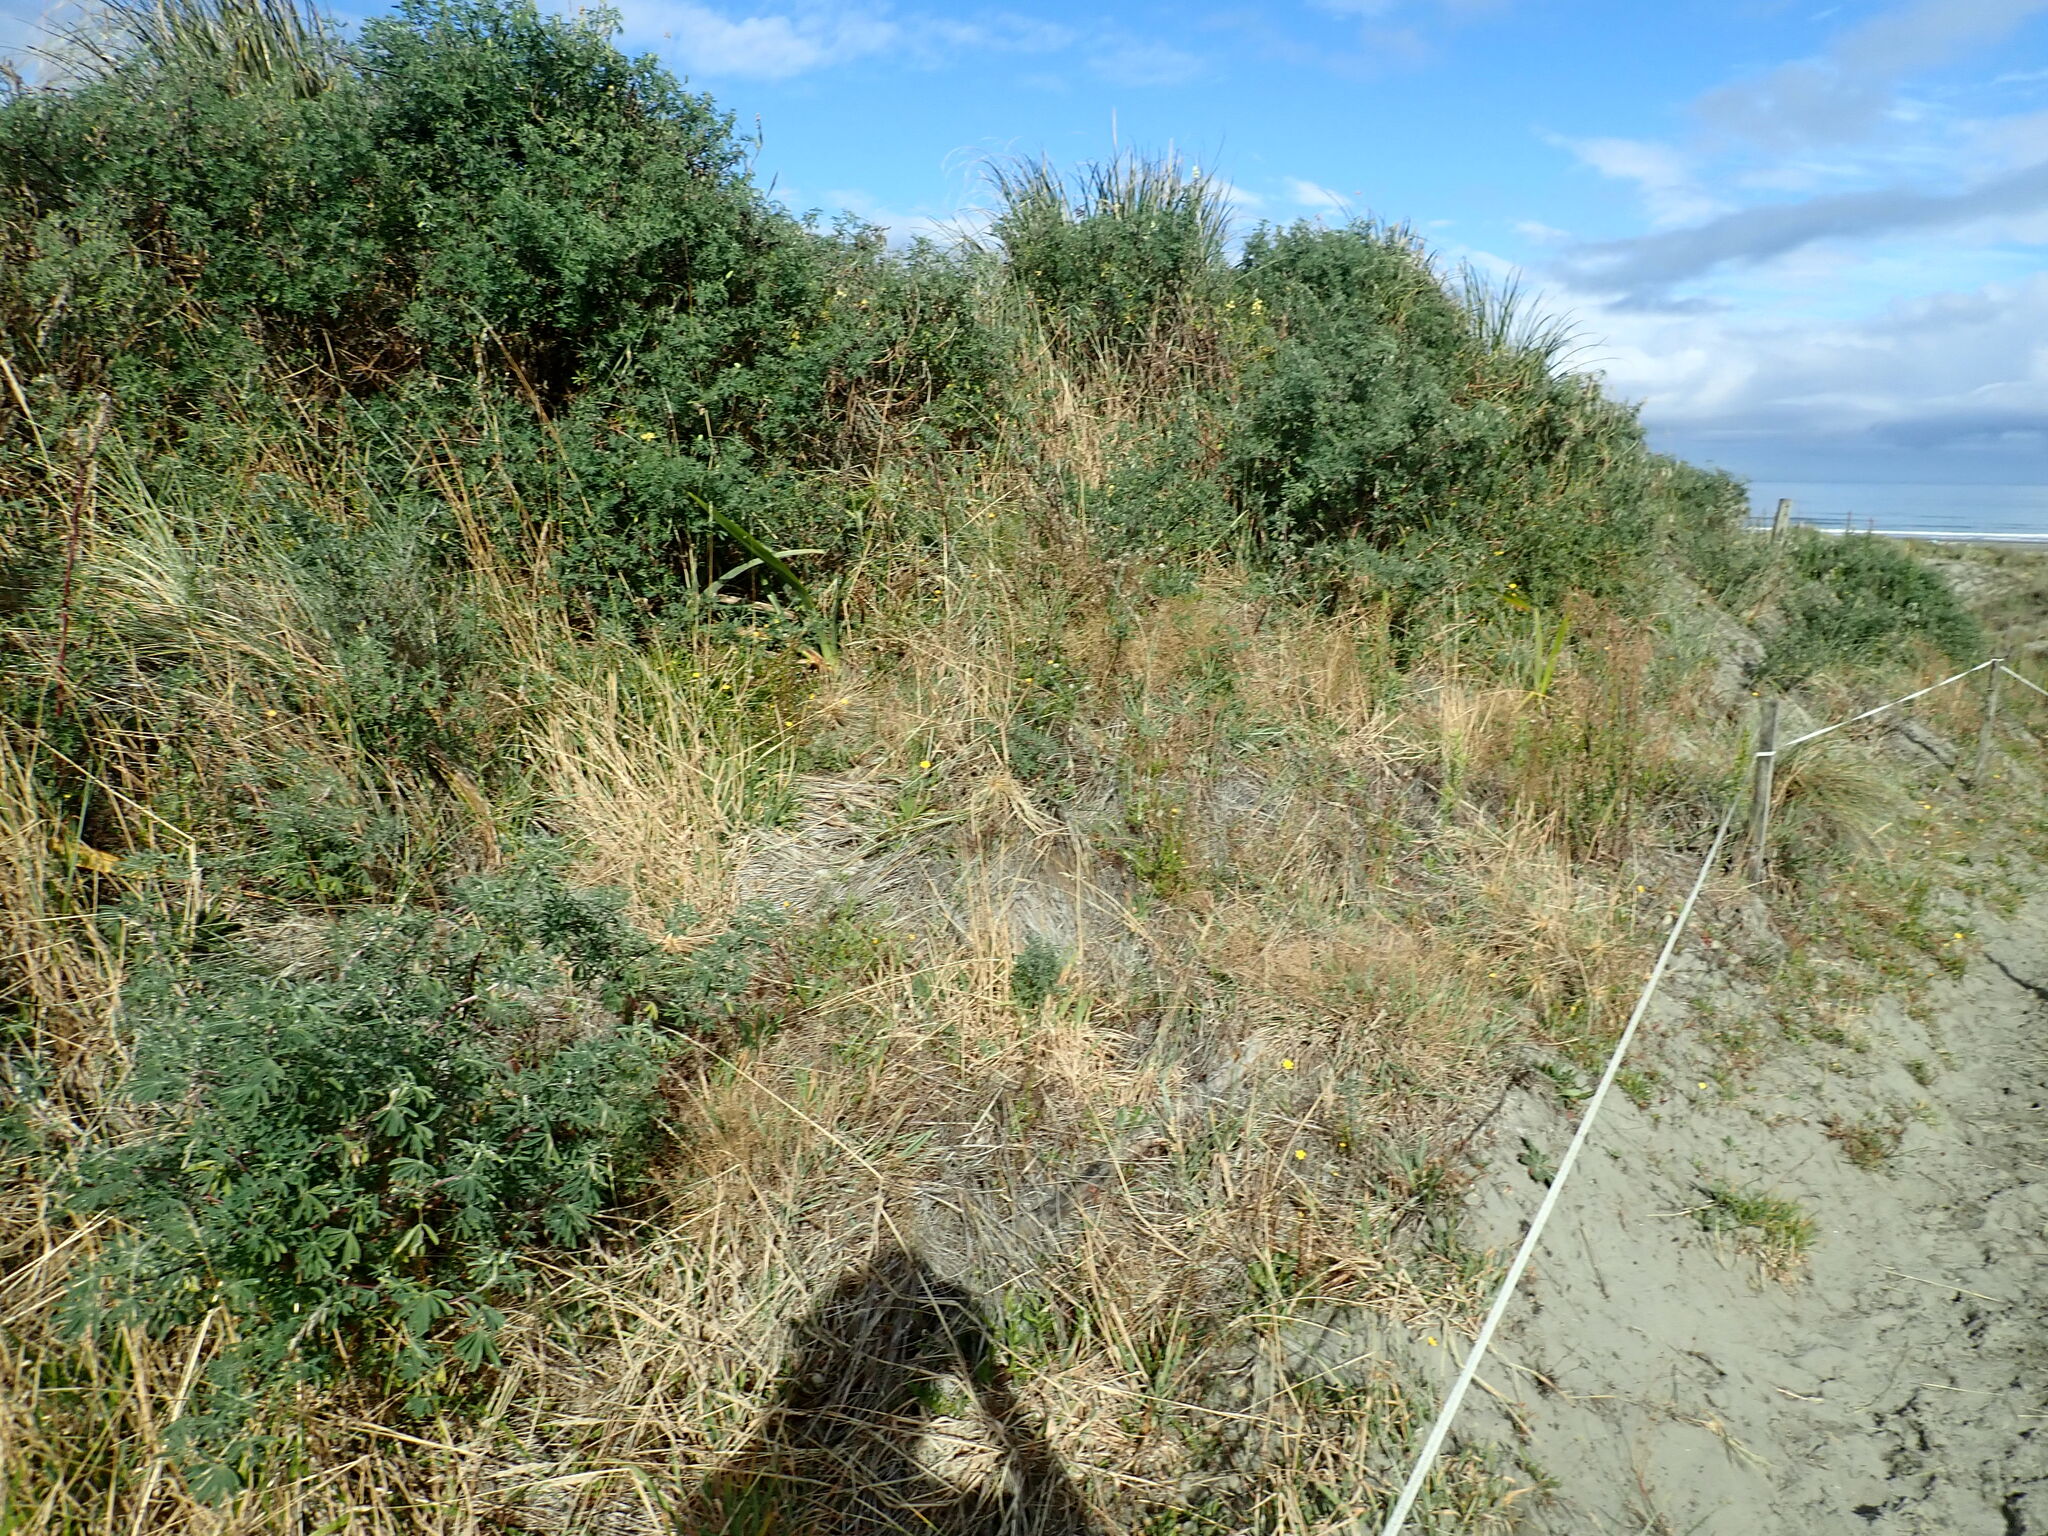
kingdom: Plantae
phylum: Tracheophyta
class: Magnoliopsida
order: Fabales
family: Fabaceae
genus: Lupinus
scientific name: Lupinus arboreus
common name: Yellow bush lupine
